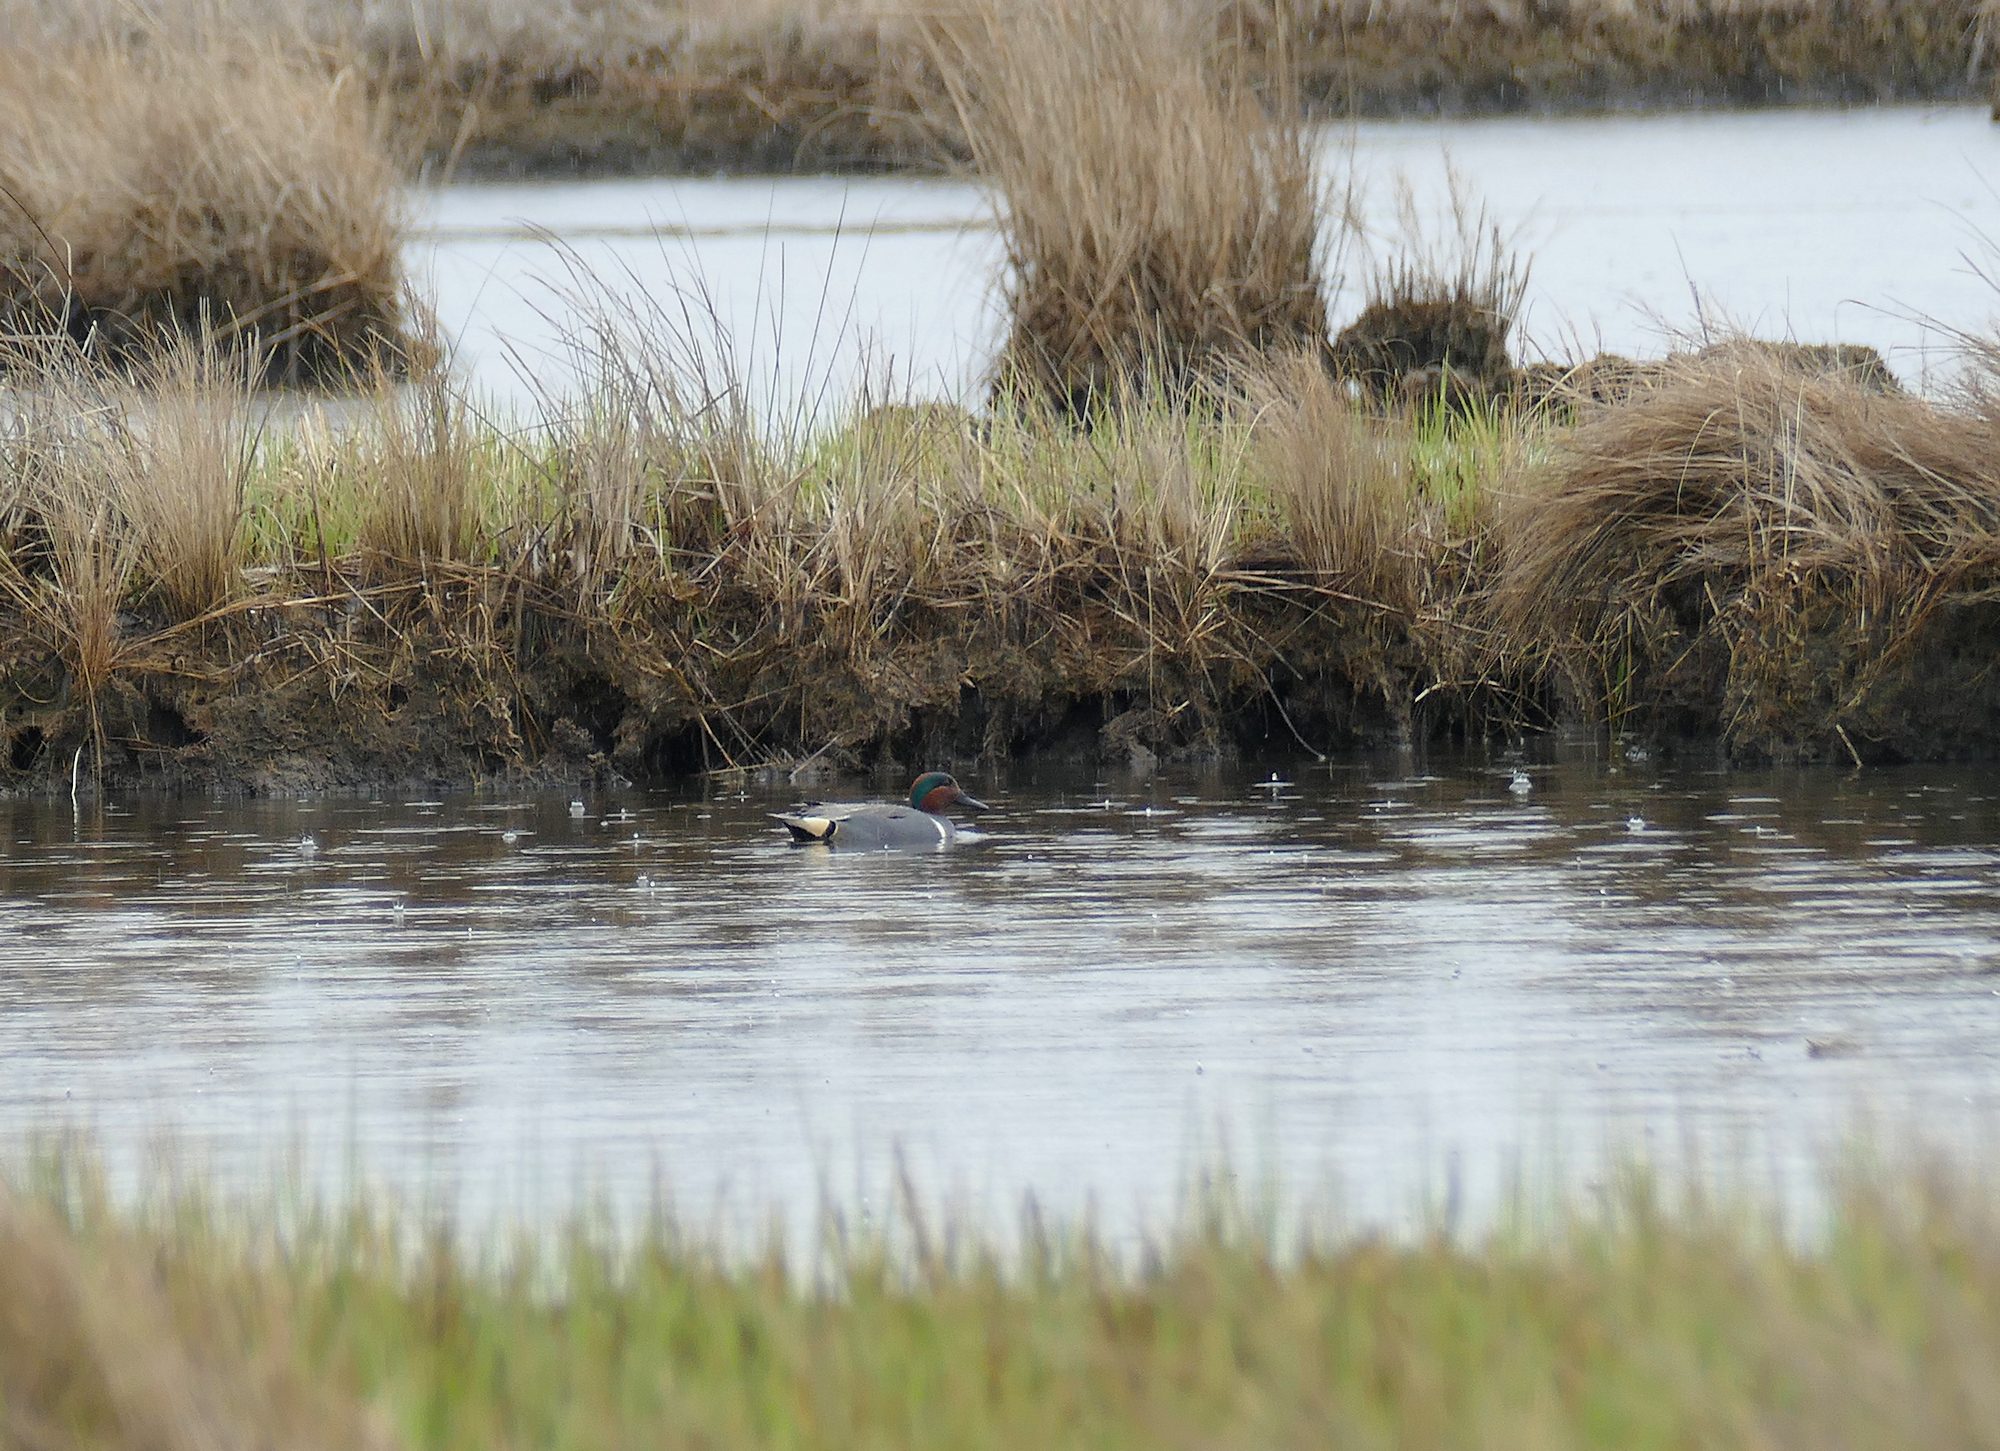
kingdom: Animalia
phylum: Chordata
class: Aves
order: Anseriformes
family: Anatidae
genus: Anas
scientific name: Anas crecca
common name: Eurasian teal
